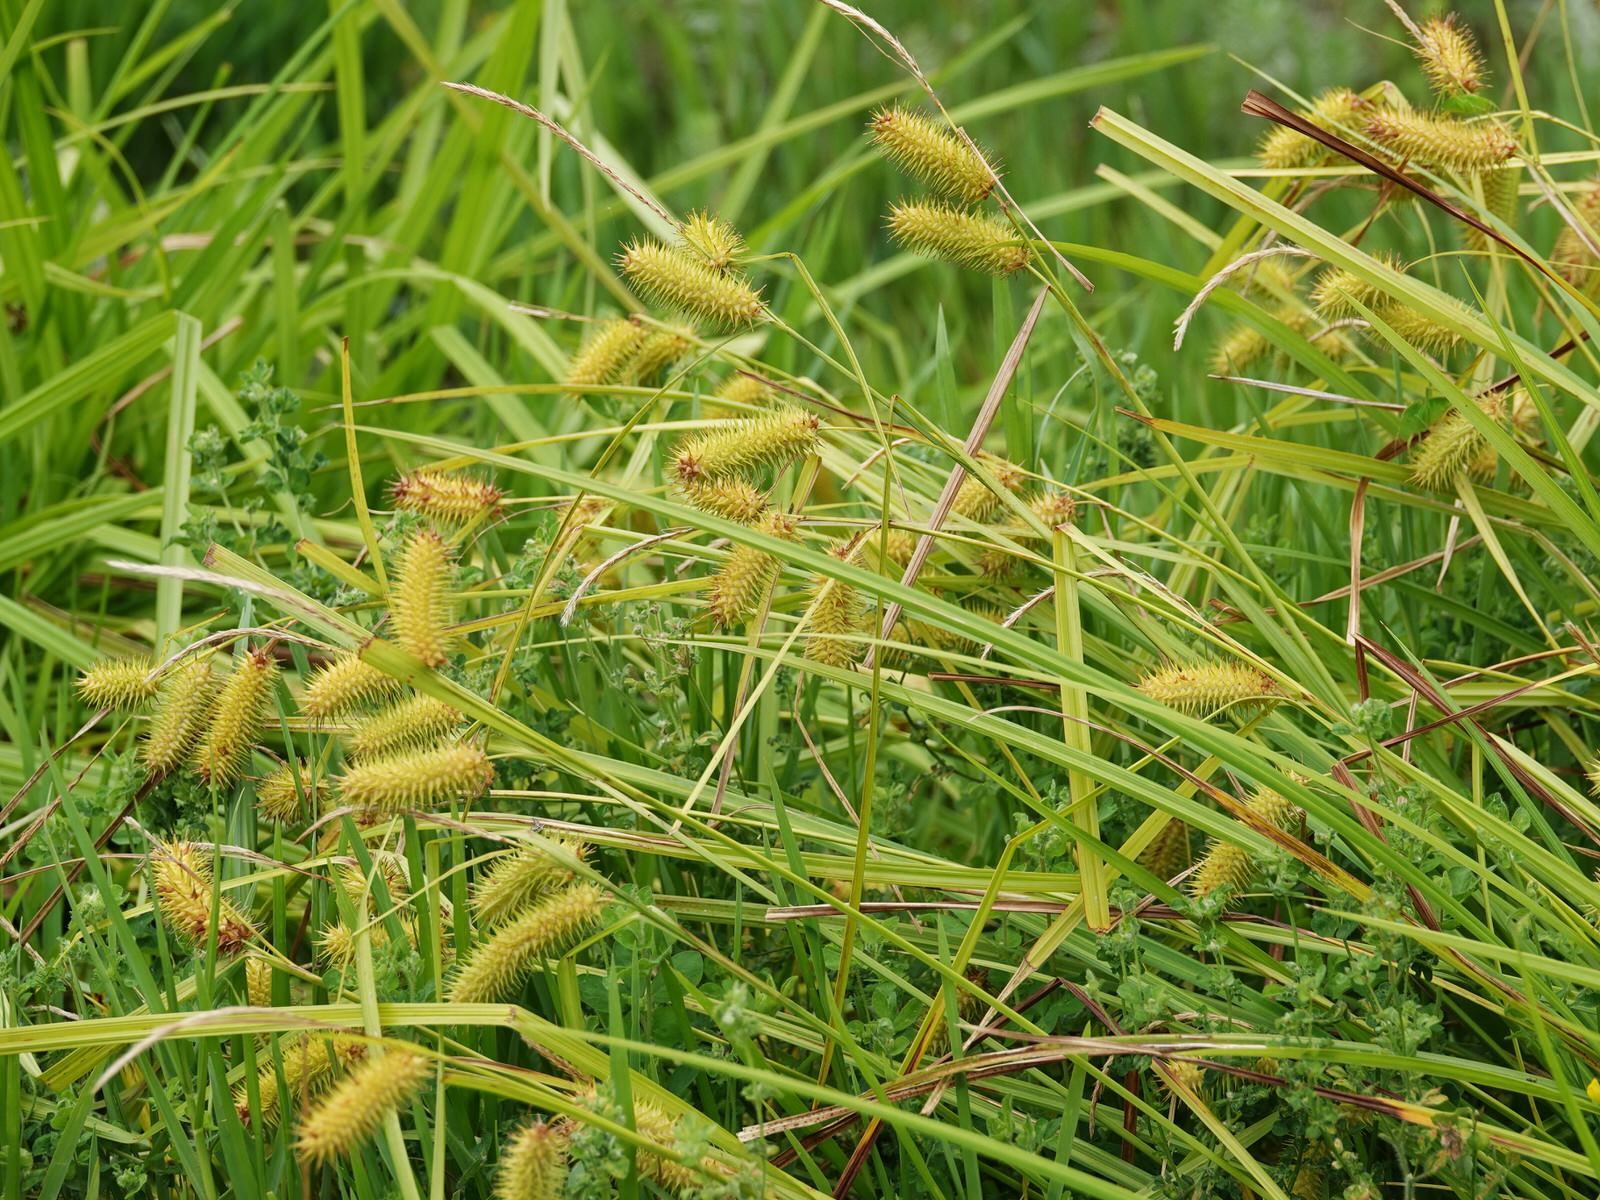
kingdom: Plantae
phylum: Tracheophyta
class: Liliopsida
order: Poales
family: Cyperaceae
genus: Carex
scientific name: Carex lurida
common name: Sallow sedge
